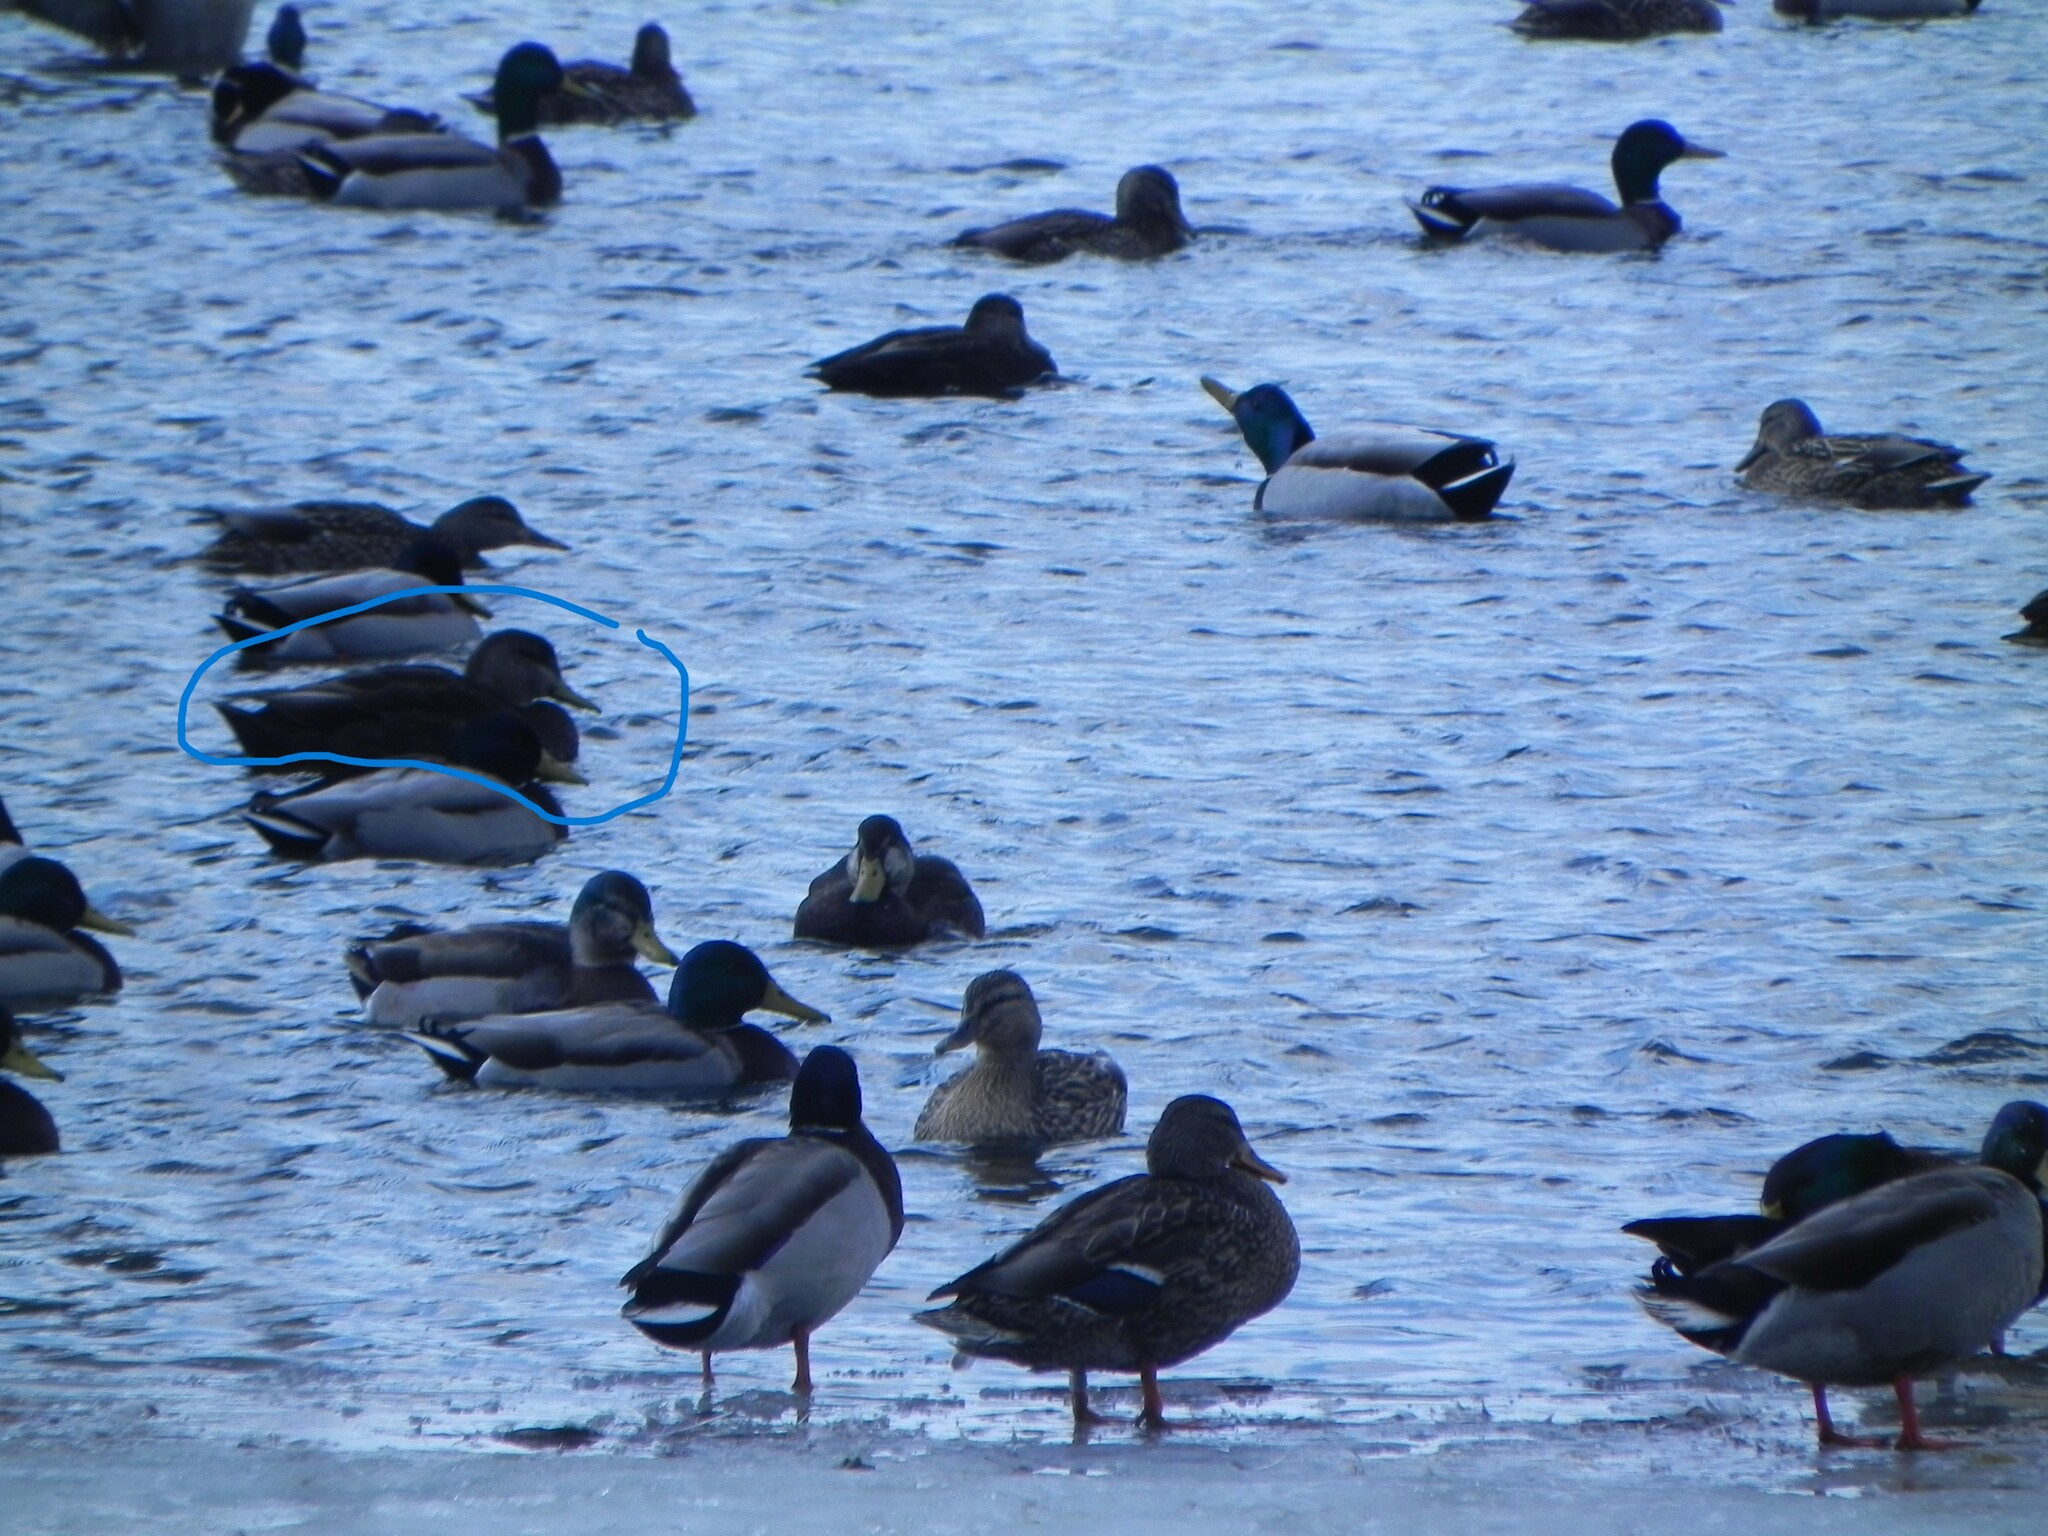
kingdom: Animalia
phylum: Chordata
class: Aves
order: Anseriformes
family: Anatidae
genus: Anas
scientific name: Anas rubripes
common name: American black duck
